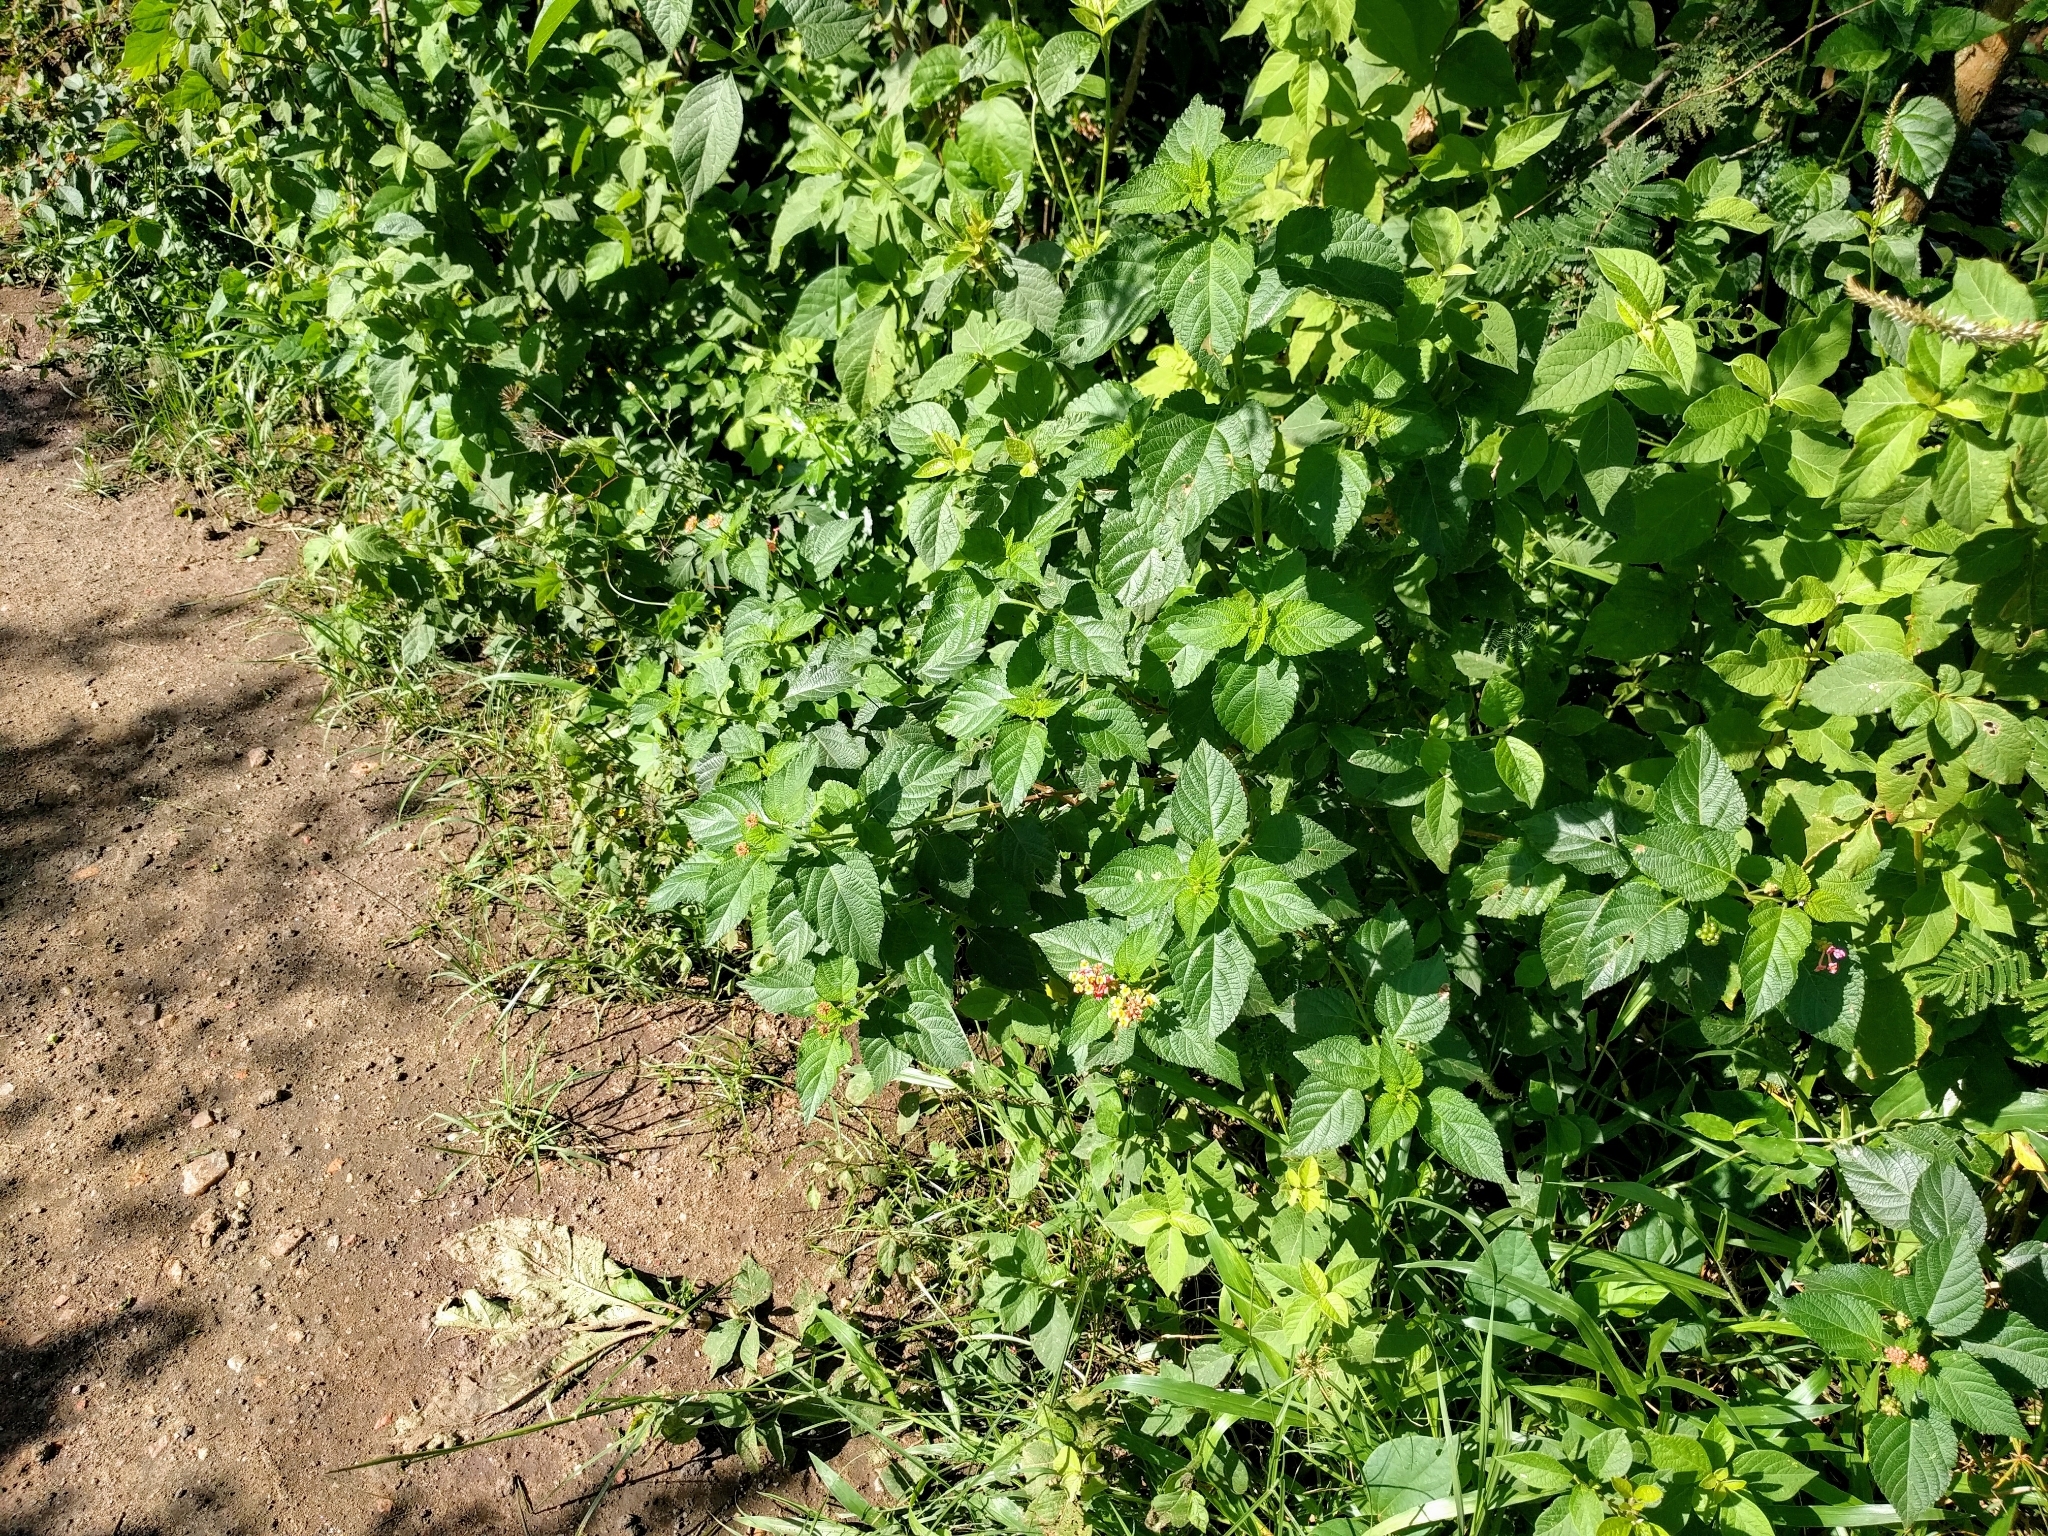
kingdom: Plantae
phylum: Tracheophyta
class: Magnoliopsida
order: Lamiales
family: Verbenaceae
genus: Lantana
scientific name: Lantana camara
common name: Lantana
